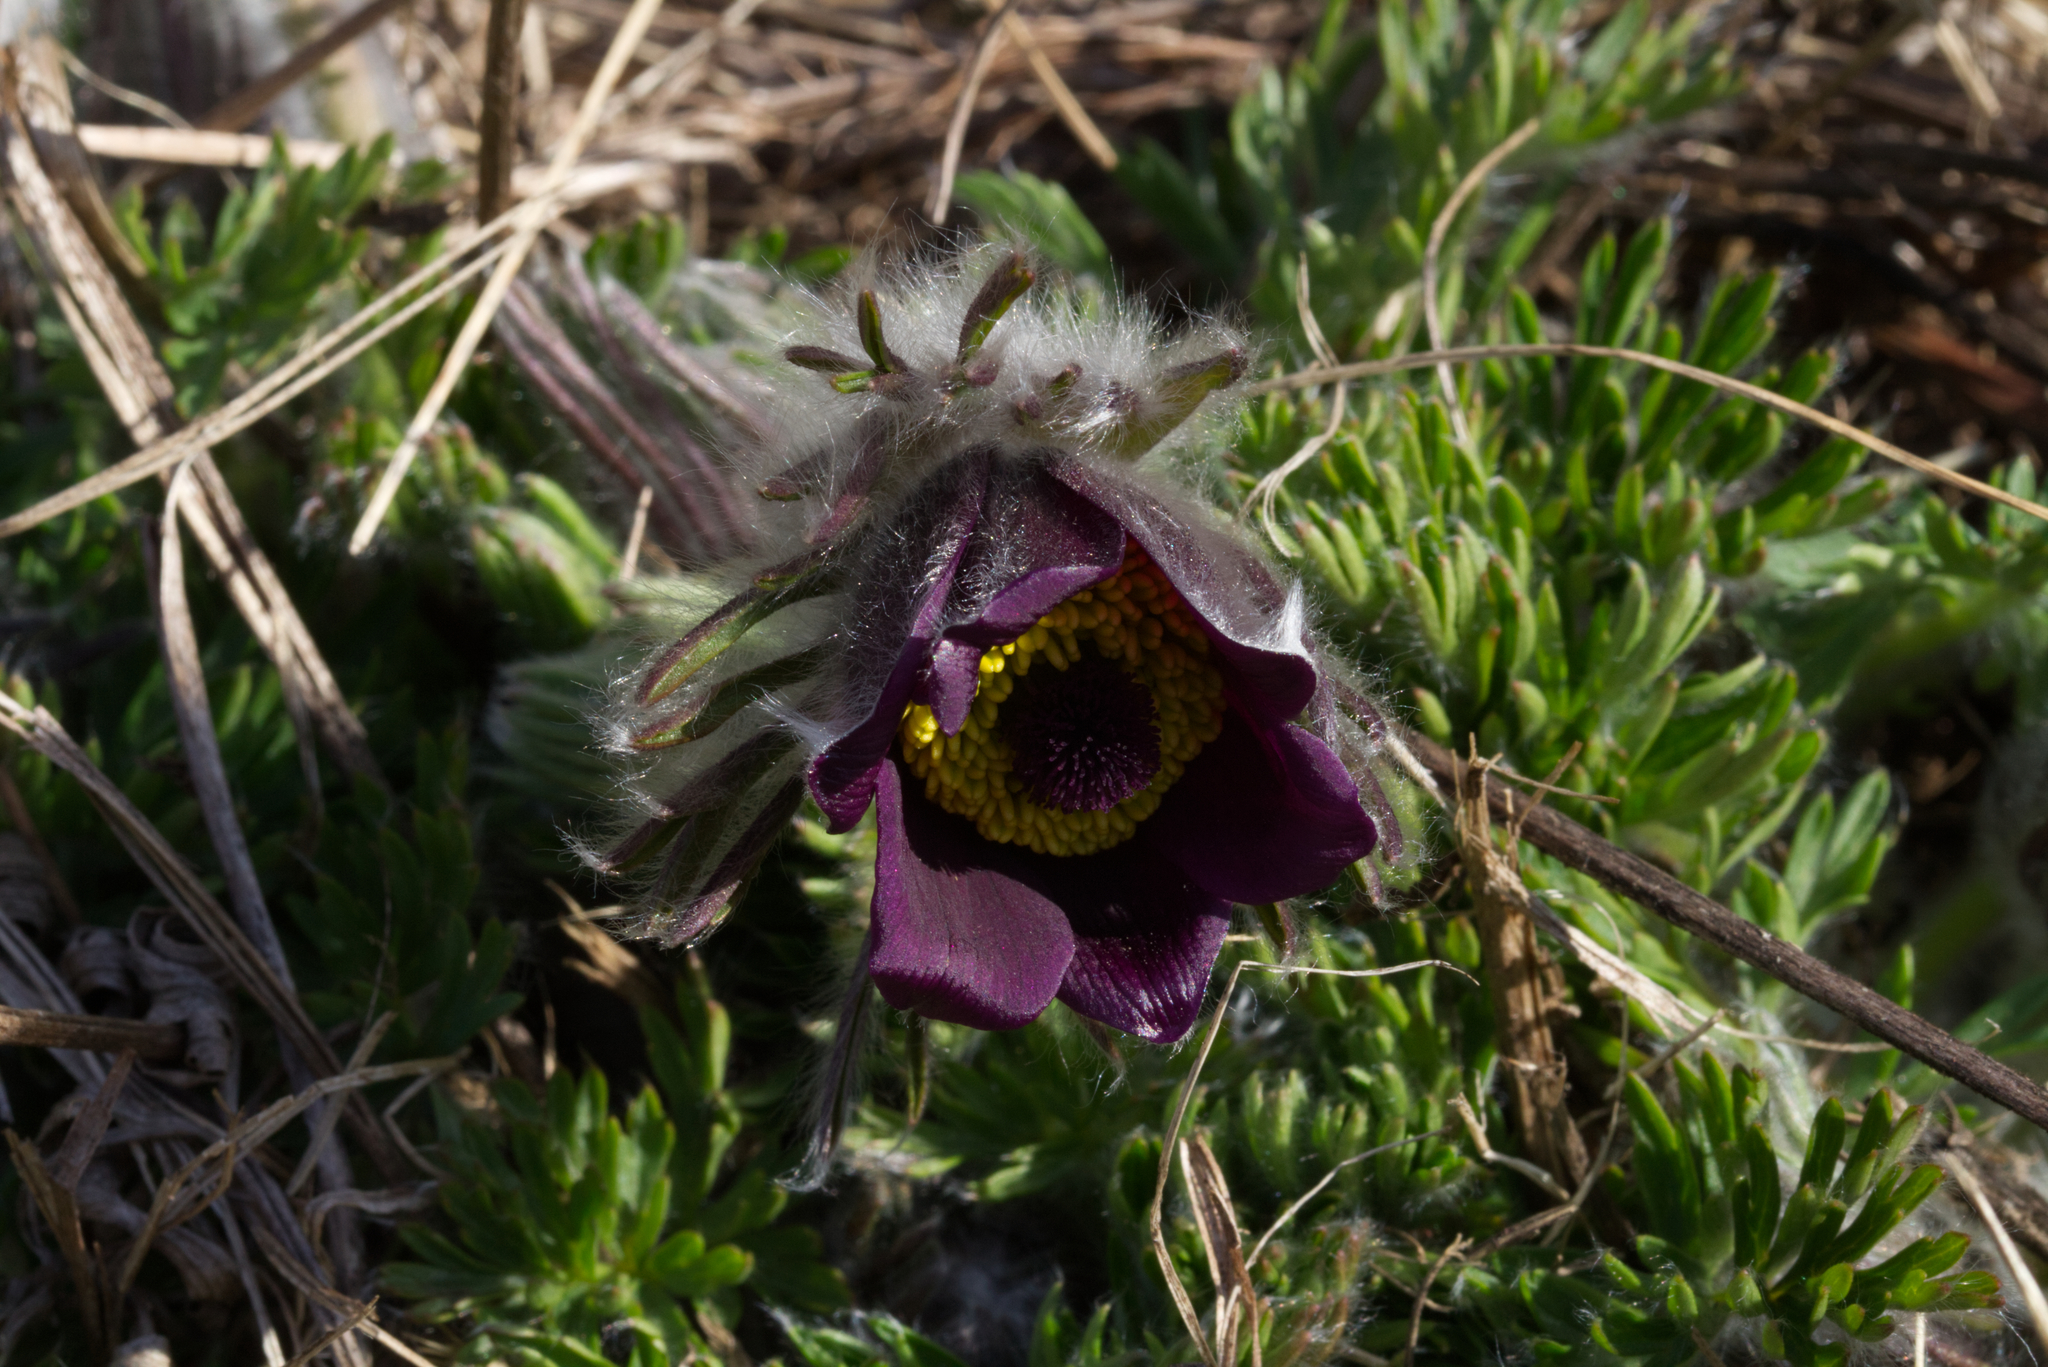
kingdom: Plantae
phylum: Tracheophyta
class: Magnoliopsida
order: Ranunculales
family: Ranunculaceae
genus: Pulsatilla
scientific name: Pulsatilla pratensis
